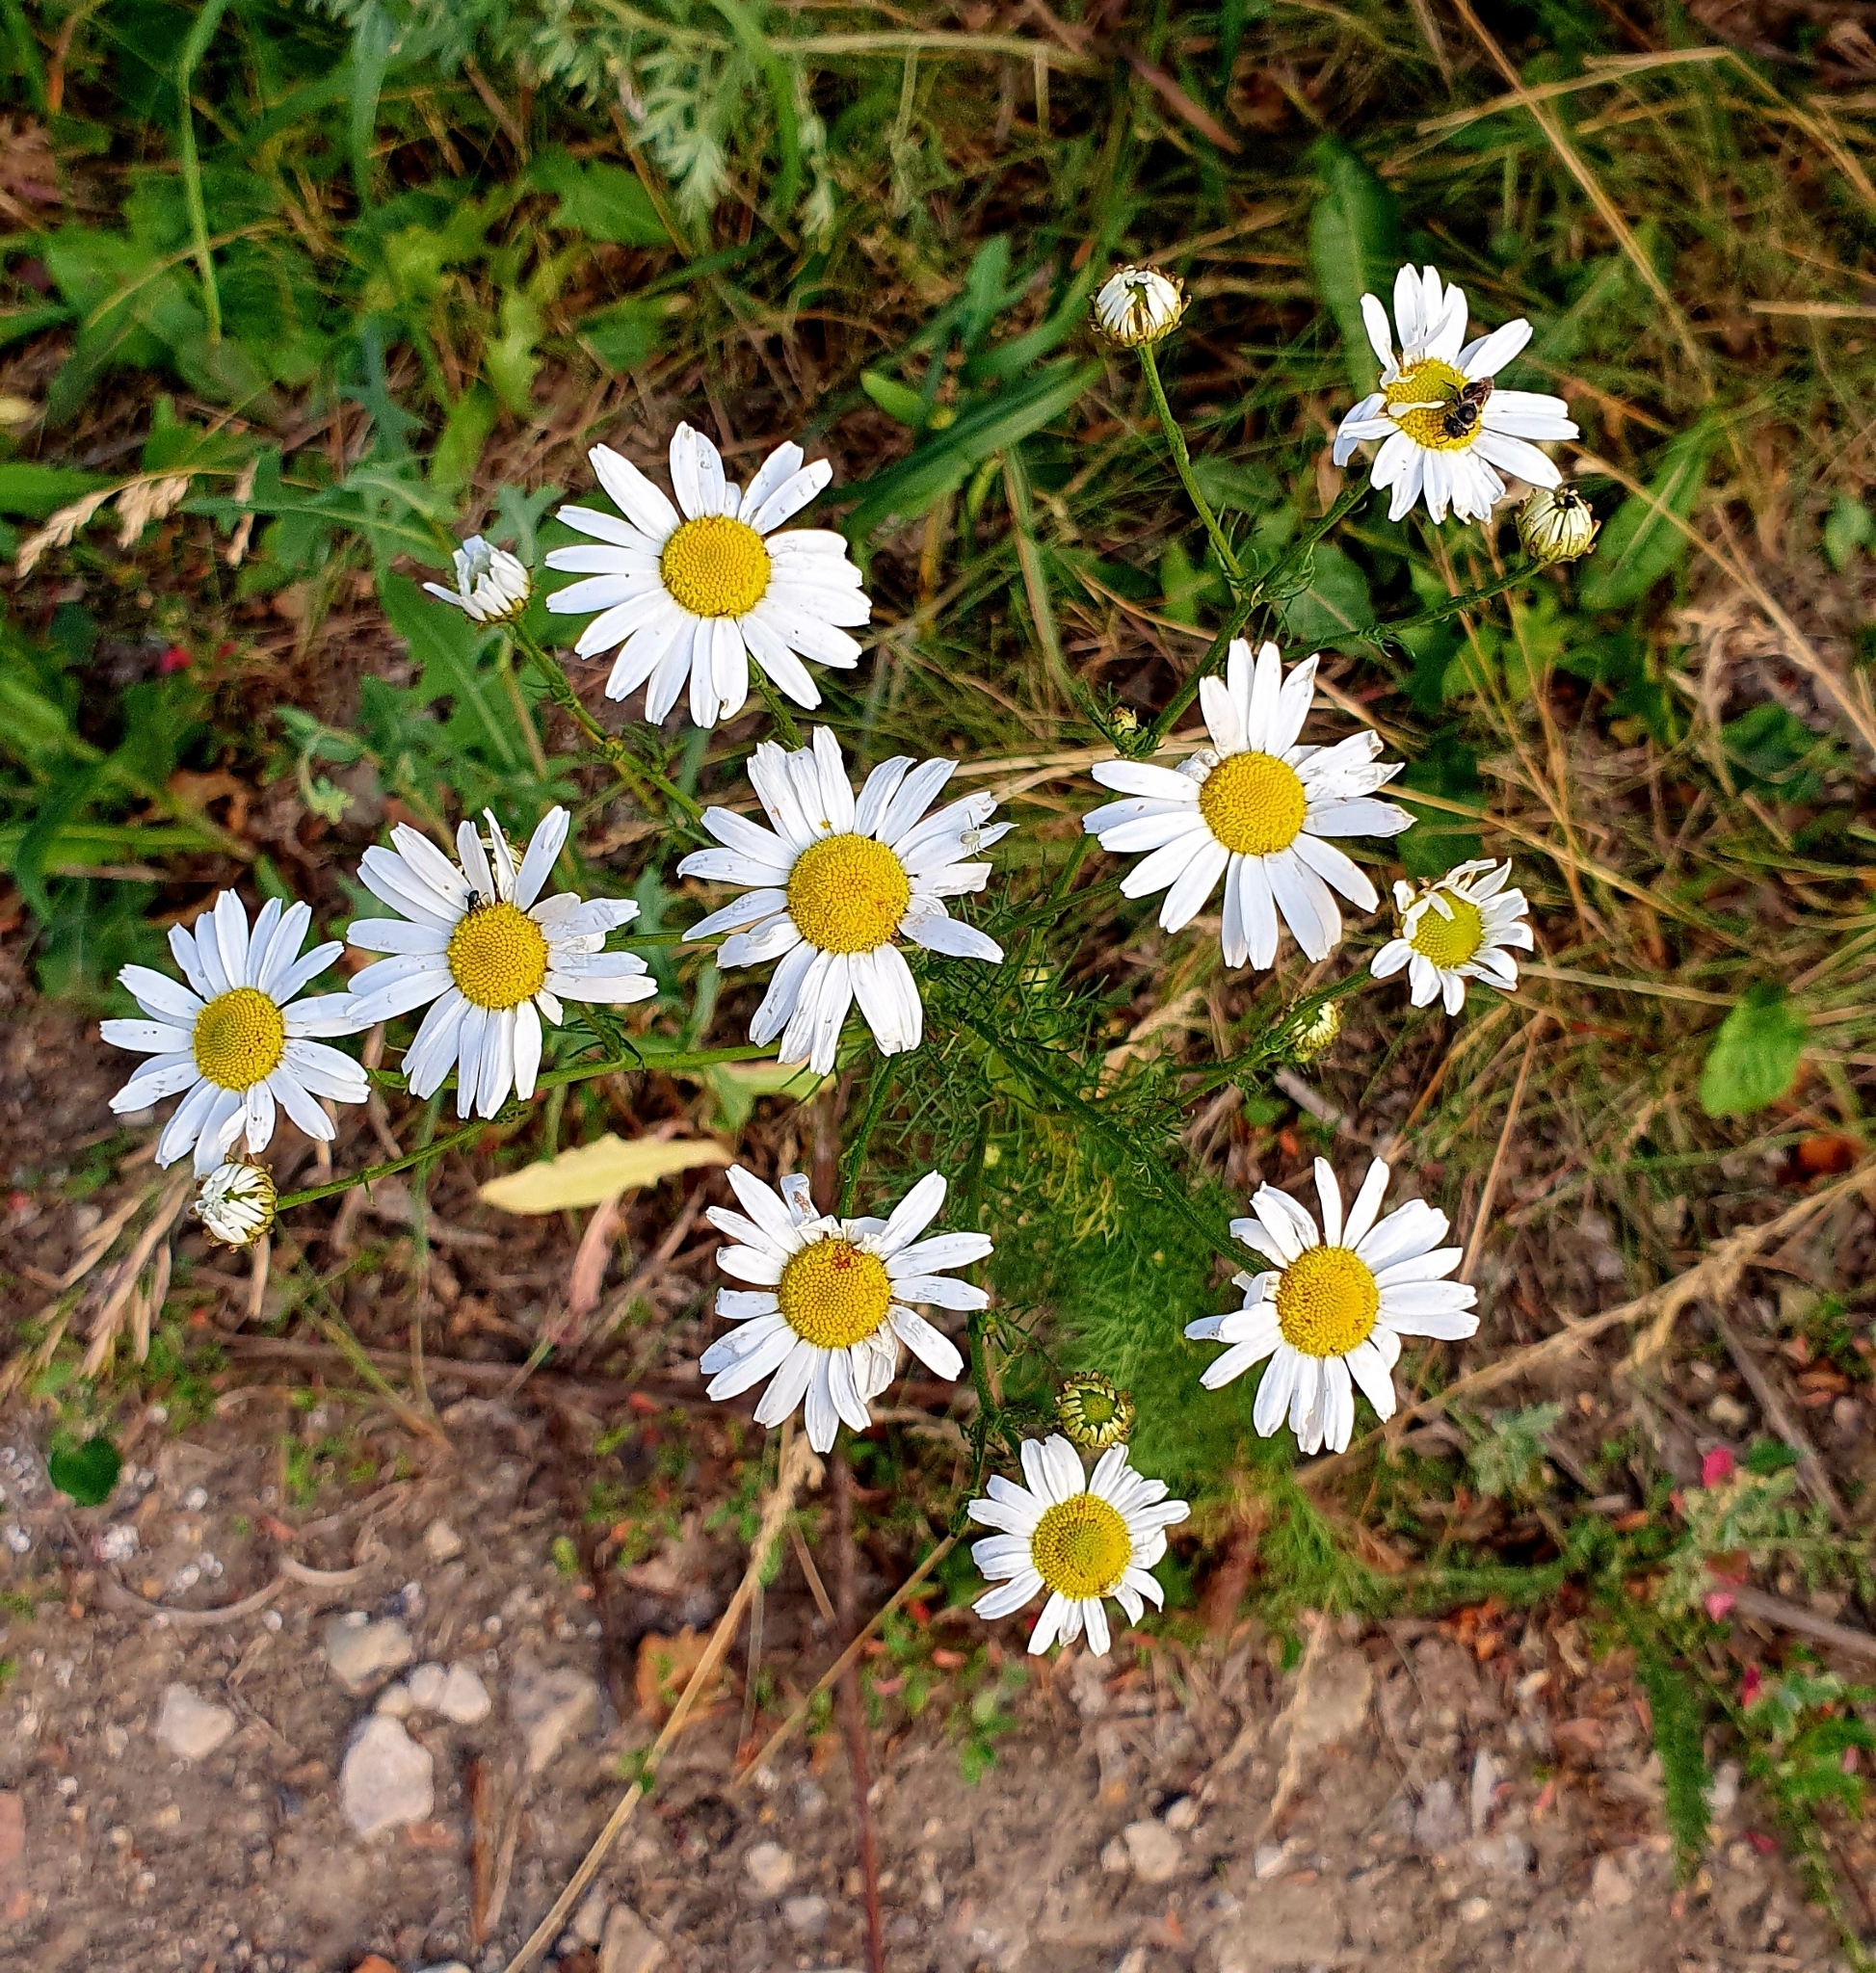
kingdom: Plantae
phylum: Tracheophyta
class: Magnoliopsida
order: Asterales
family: Asteraceae
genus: Tripleurospermum
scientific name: Tripleurospermum inodorum
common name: Scentless mayweed
